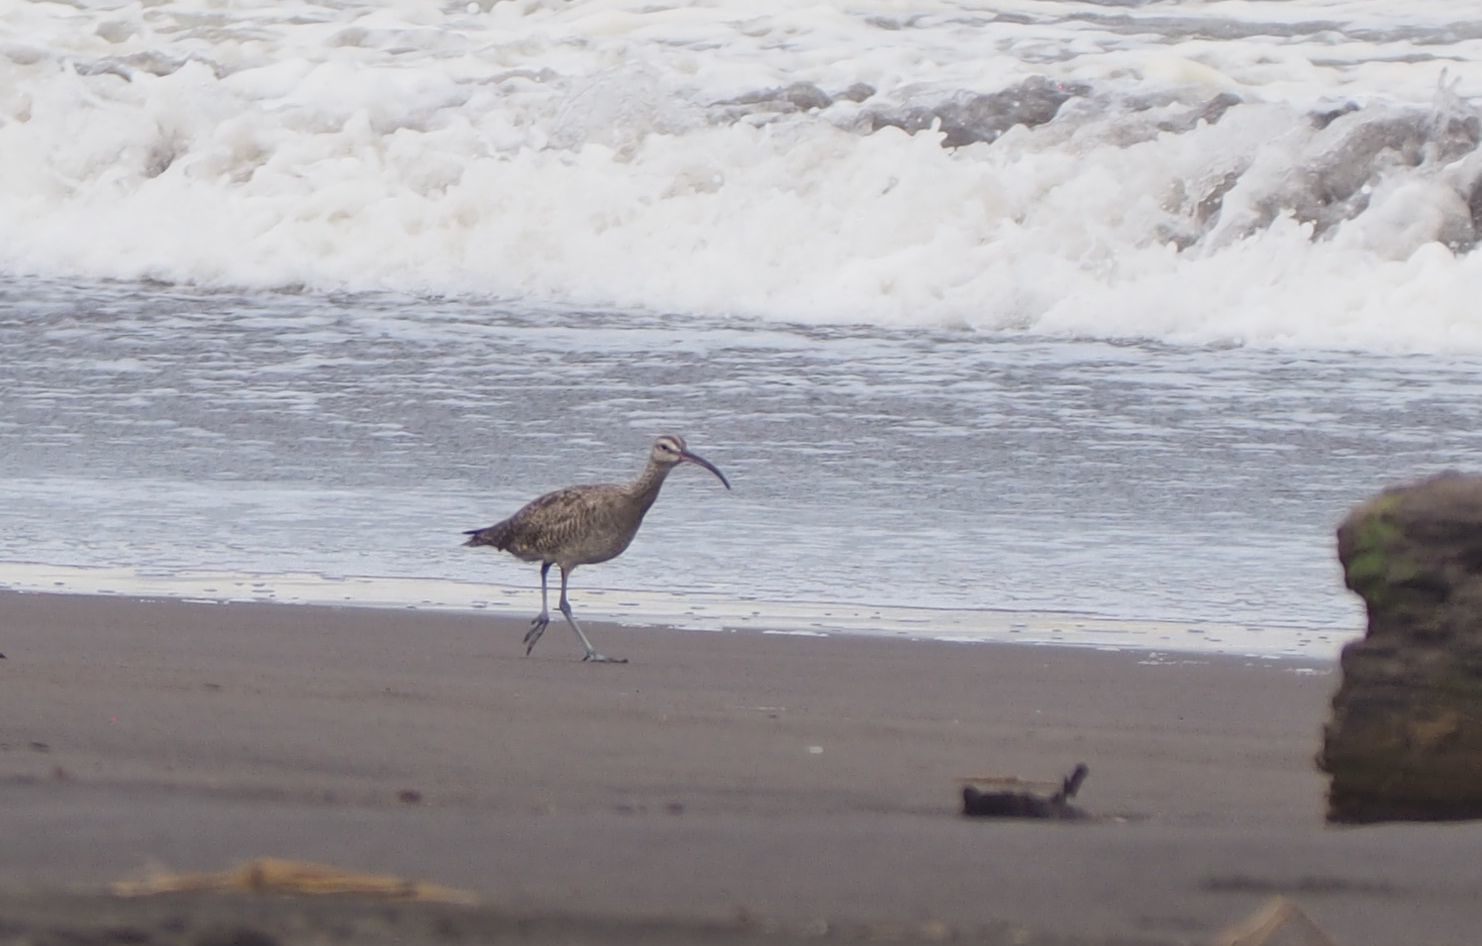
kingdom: Animalia
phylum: Chordata
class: Aves
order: Charadriiformes
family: Scolopacidae
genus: Numenius
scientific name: Numenius phaeopus
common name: Whimbrel
